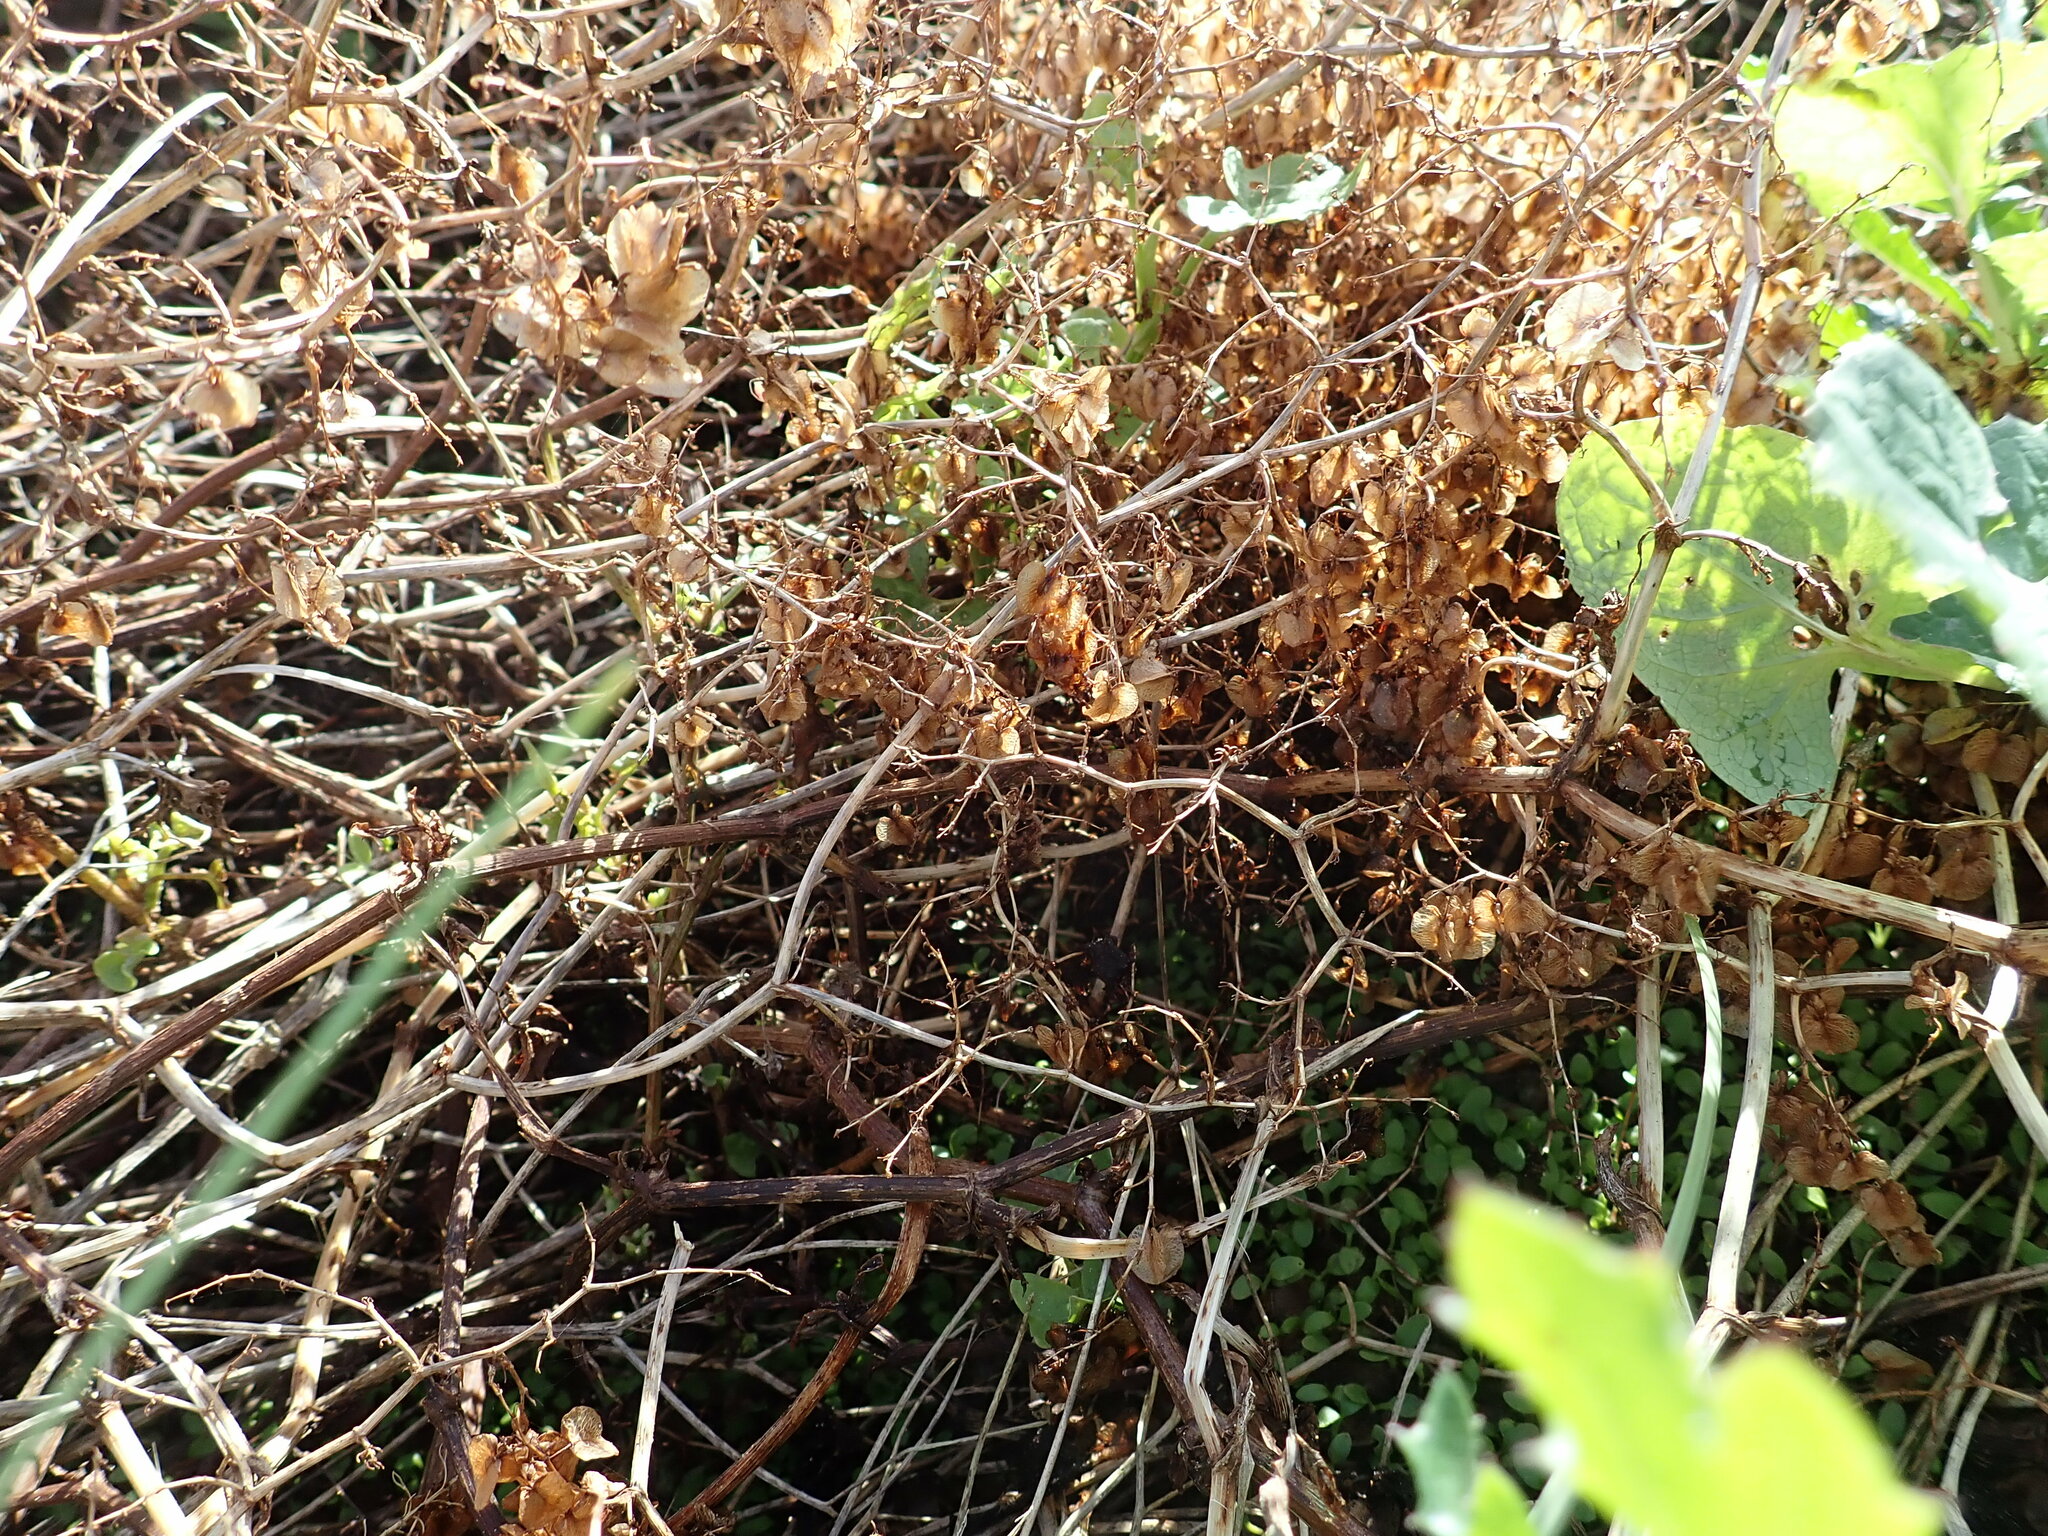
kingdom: Plantae
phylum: Tracheophyta
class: Magnoliopsida
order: Caryophyllales
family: Polygonaceae
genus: Rumex
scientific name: Rumex sagittatus
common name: Climbing dock
